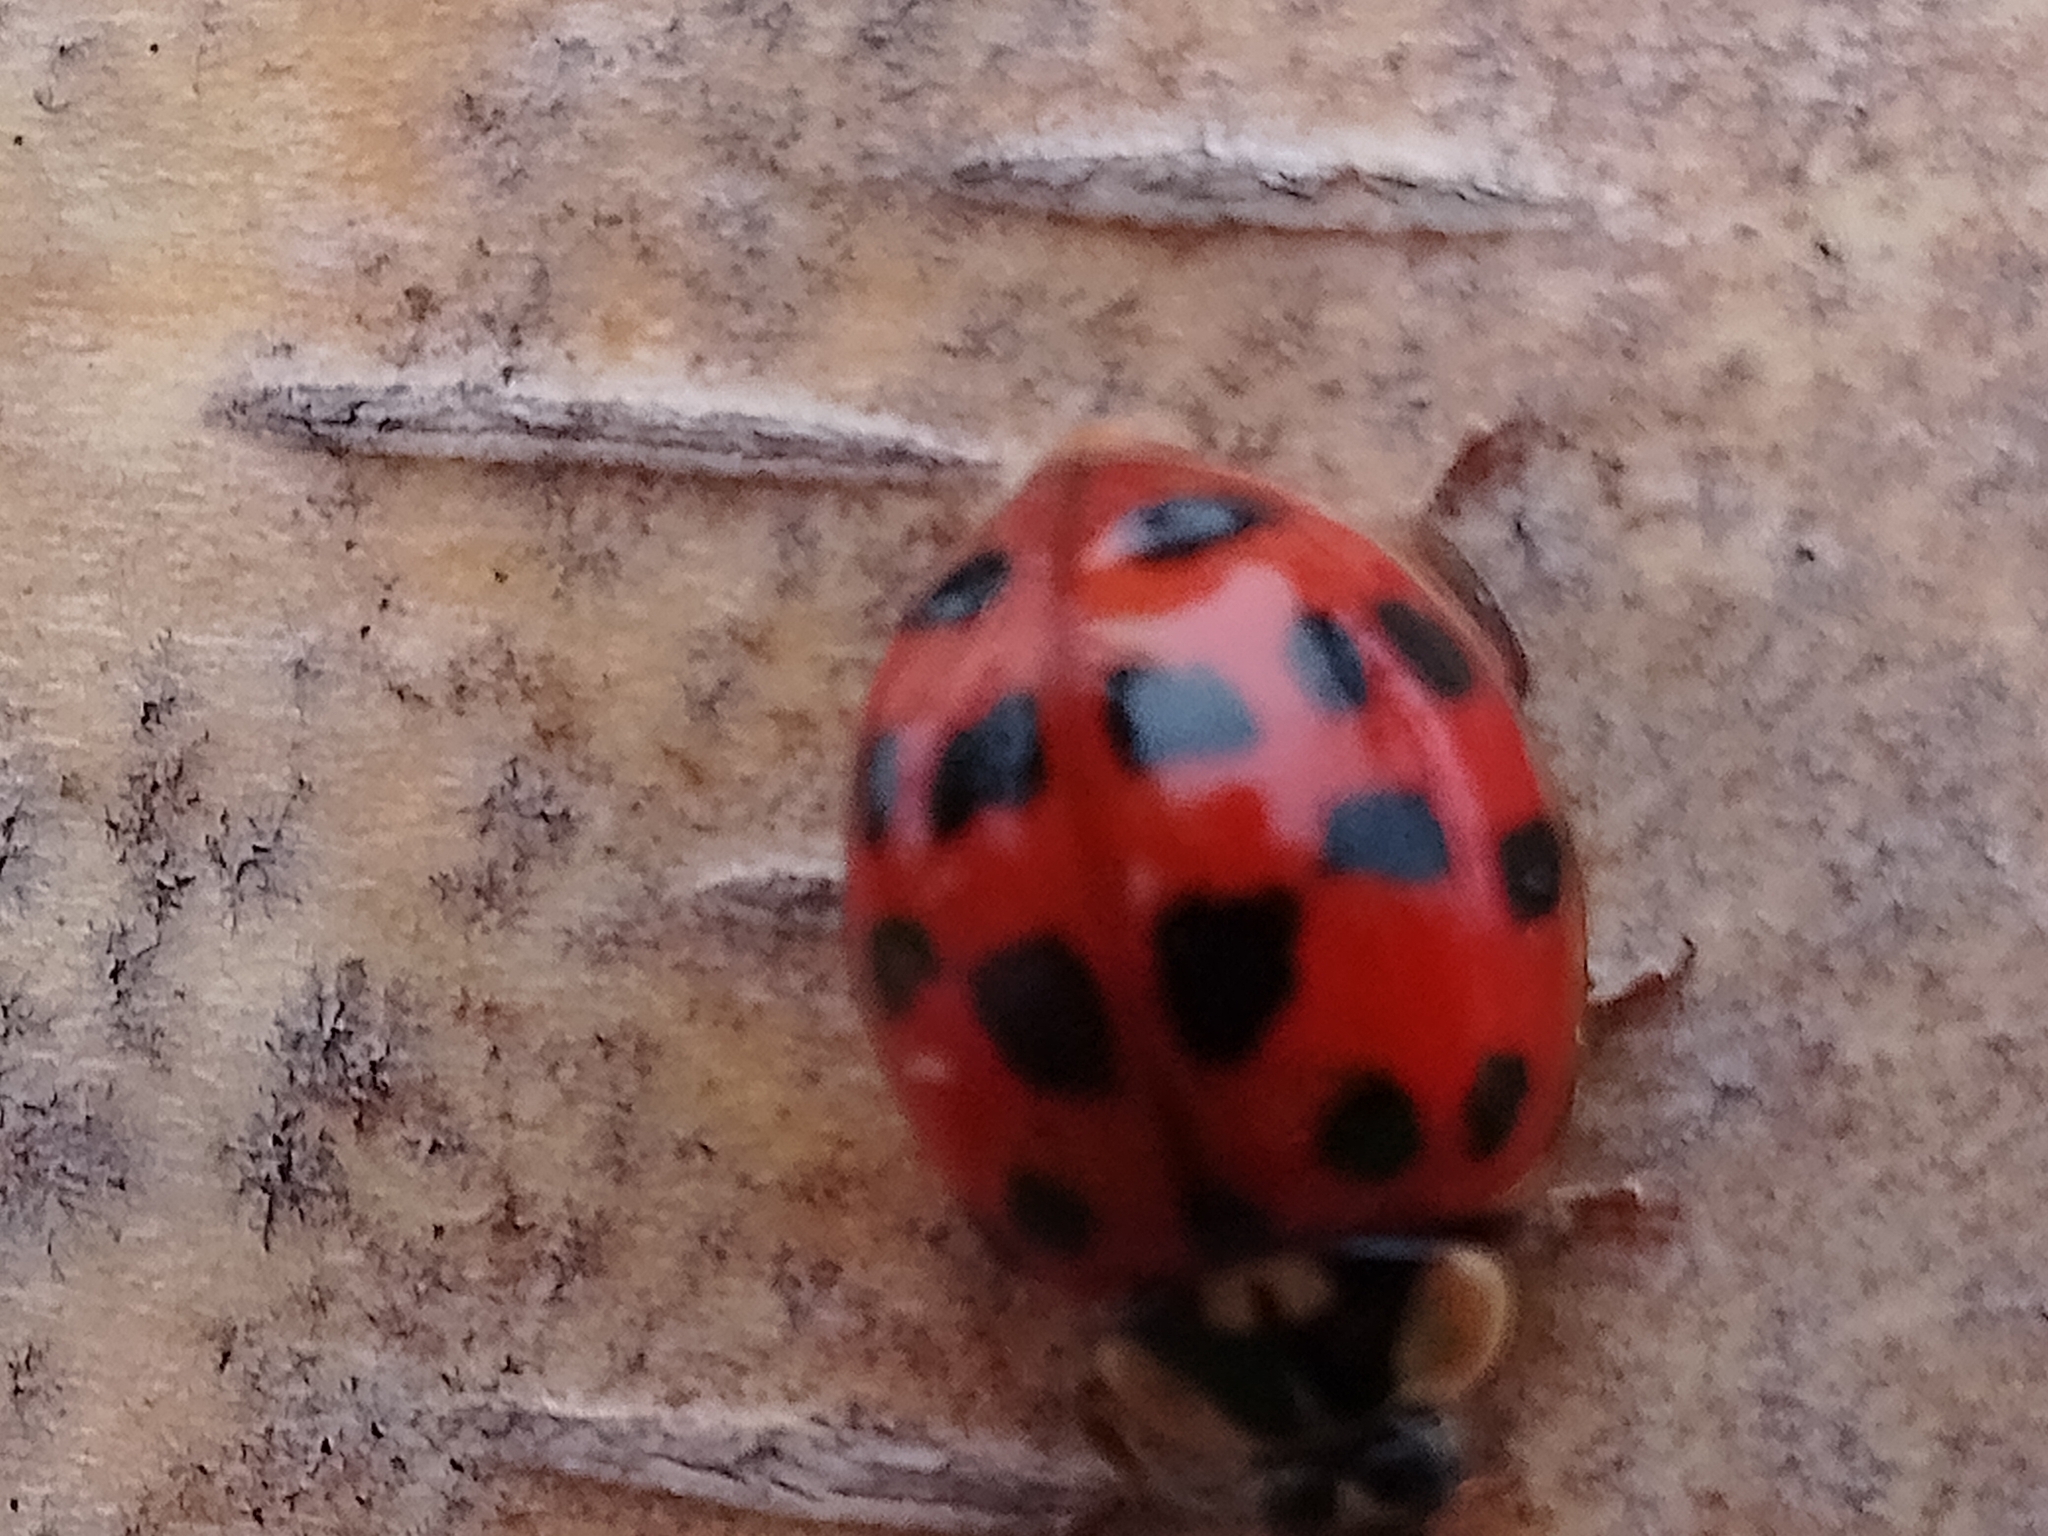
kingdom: Animalia
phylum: Arthropoda
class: Insecta
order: Coleoptera
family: Coccinellidae
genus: Harmonia
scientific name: Harmonia axyridis
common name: Harlequin ladybird
